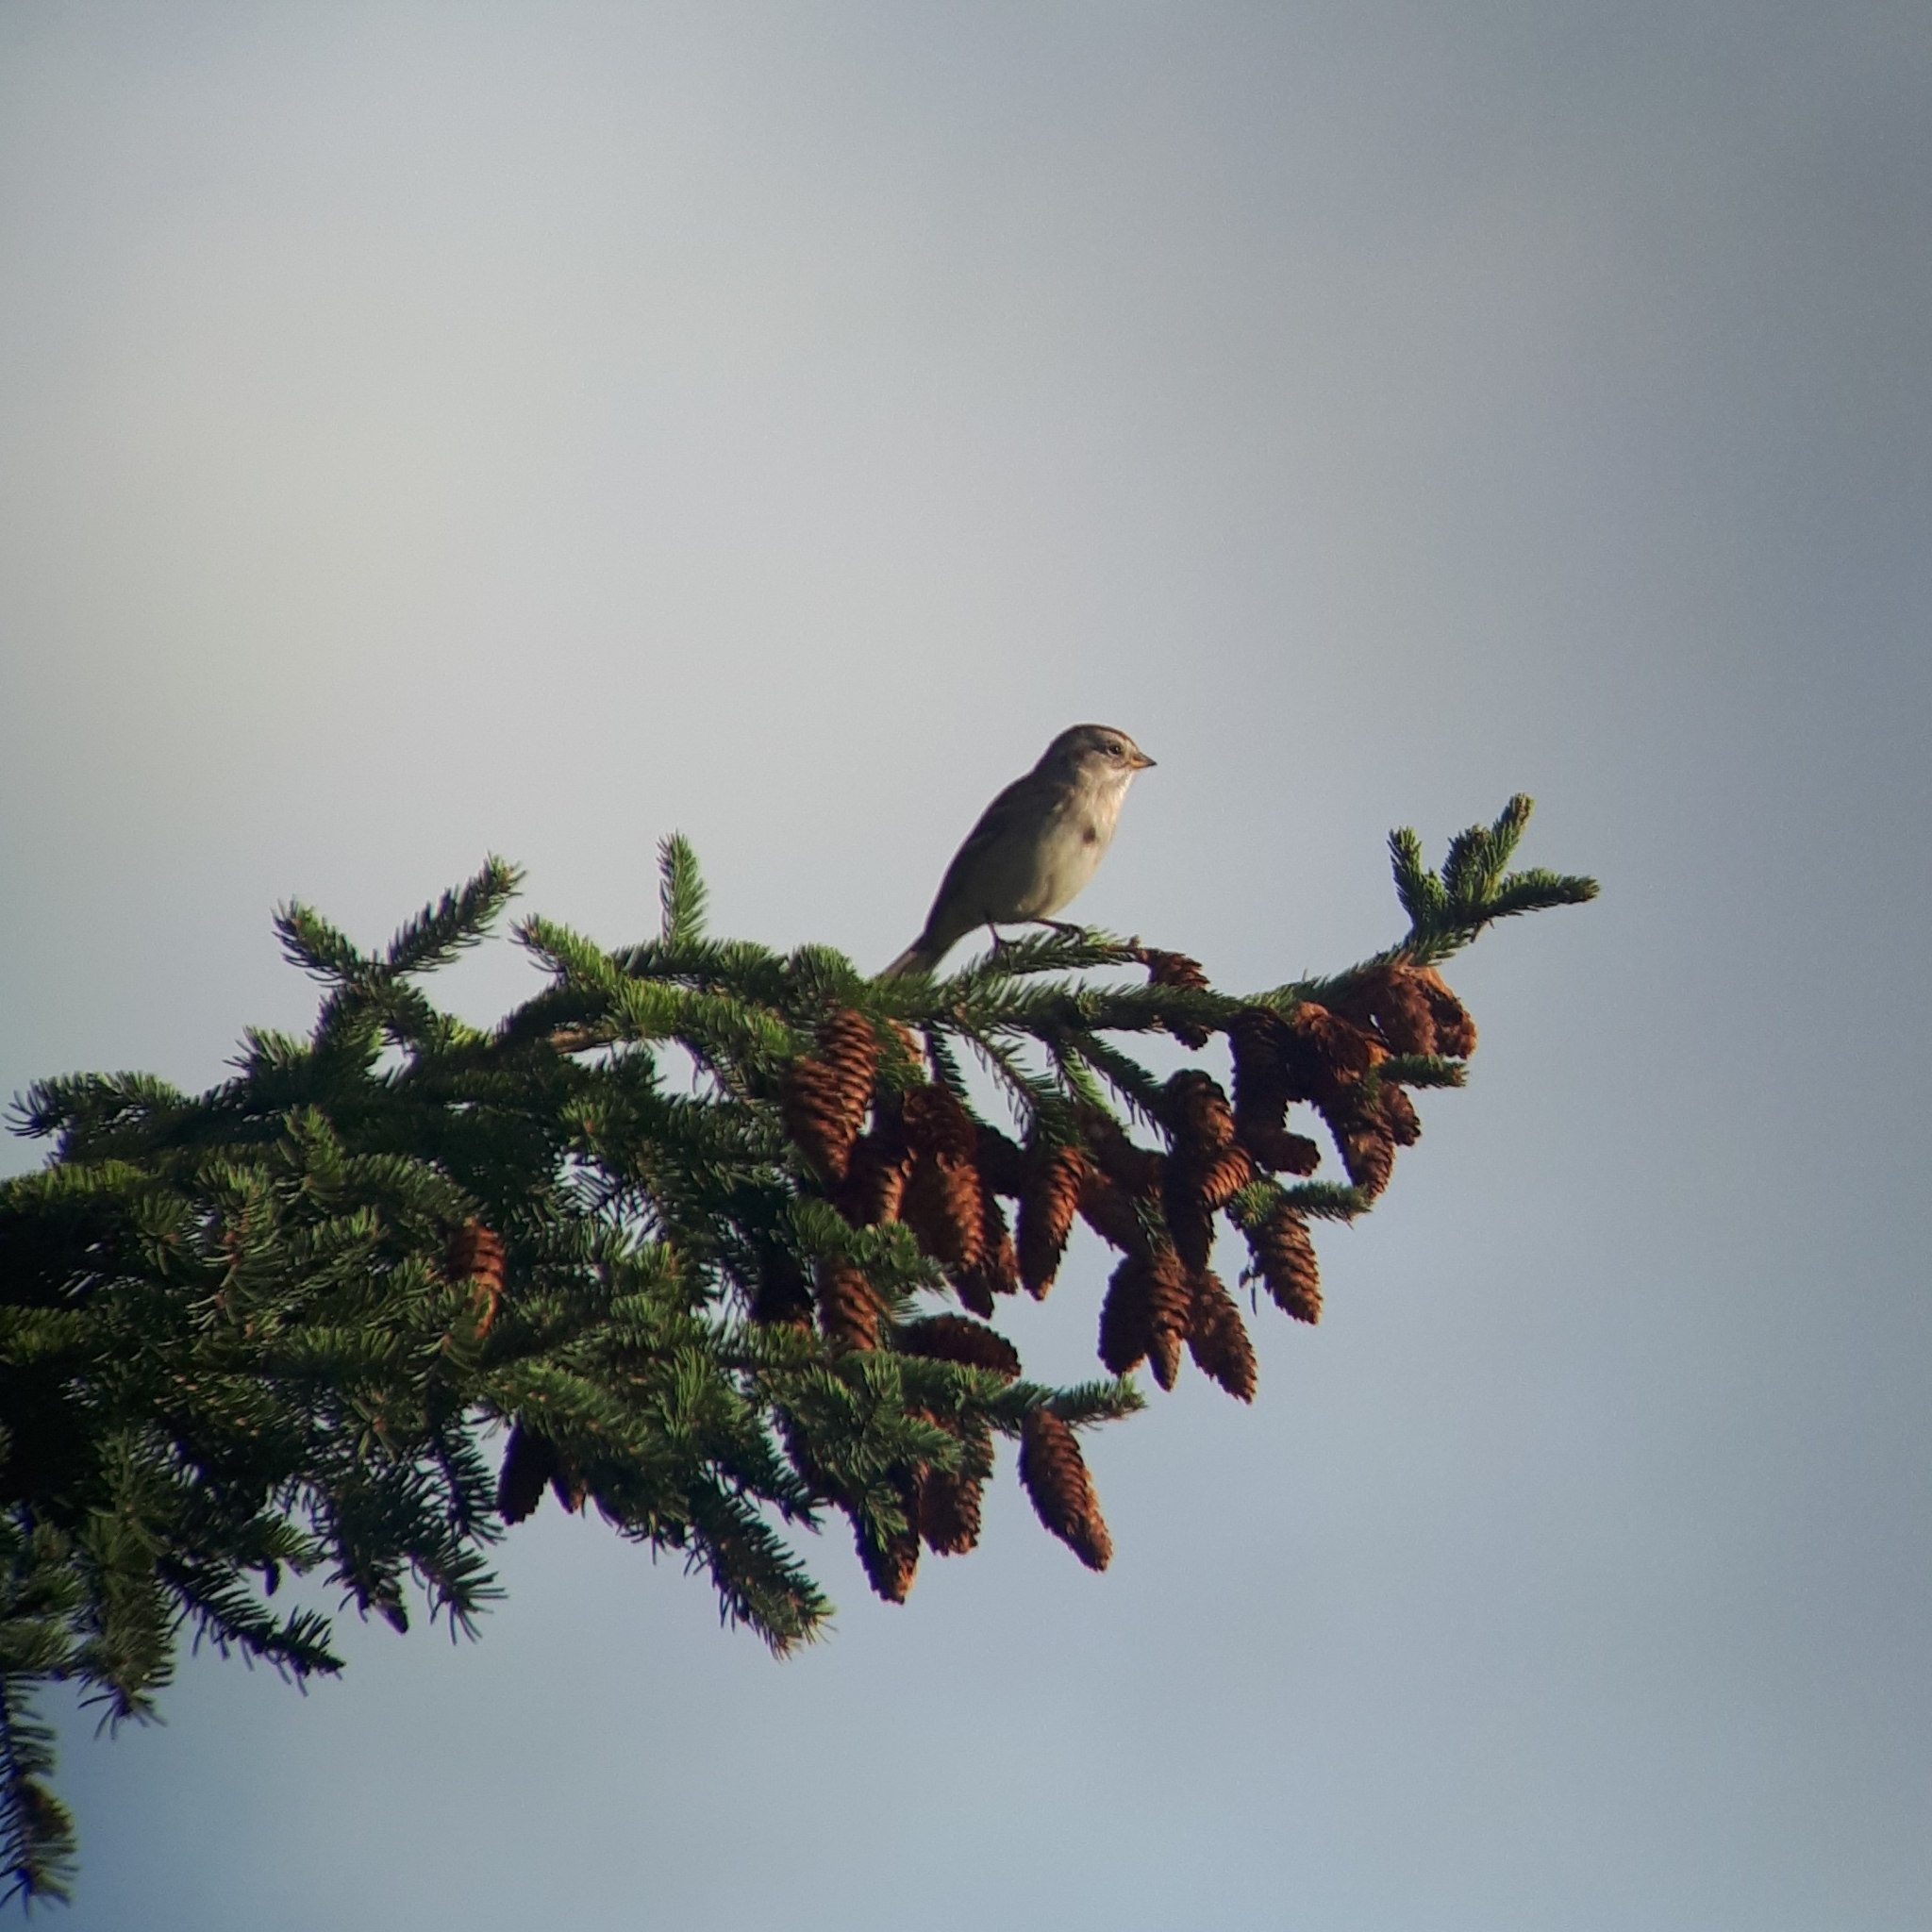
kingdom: Animalia
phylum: Chordata
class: Aves
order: Passeriformes
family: Passerellidae
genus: Spizelloides
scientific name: Spizelloides arborea
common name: American tree sparrow
